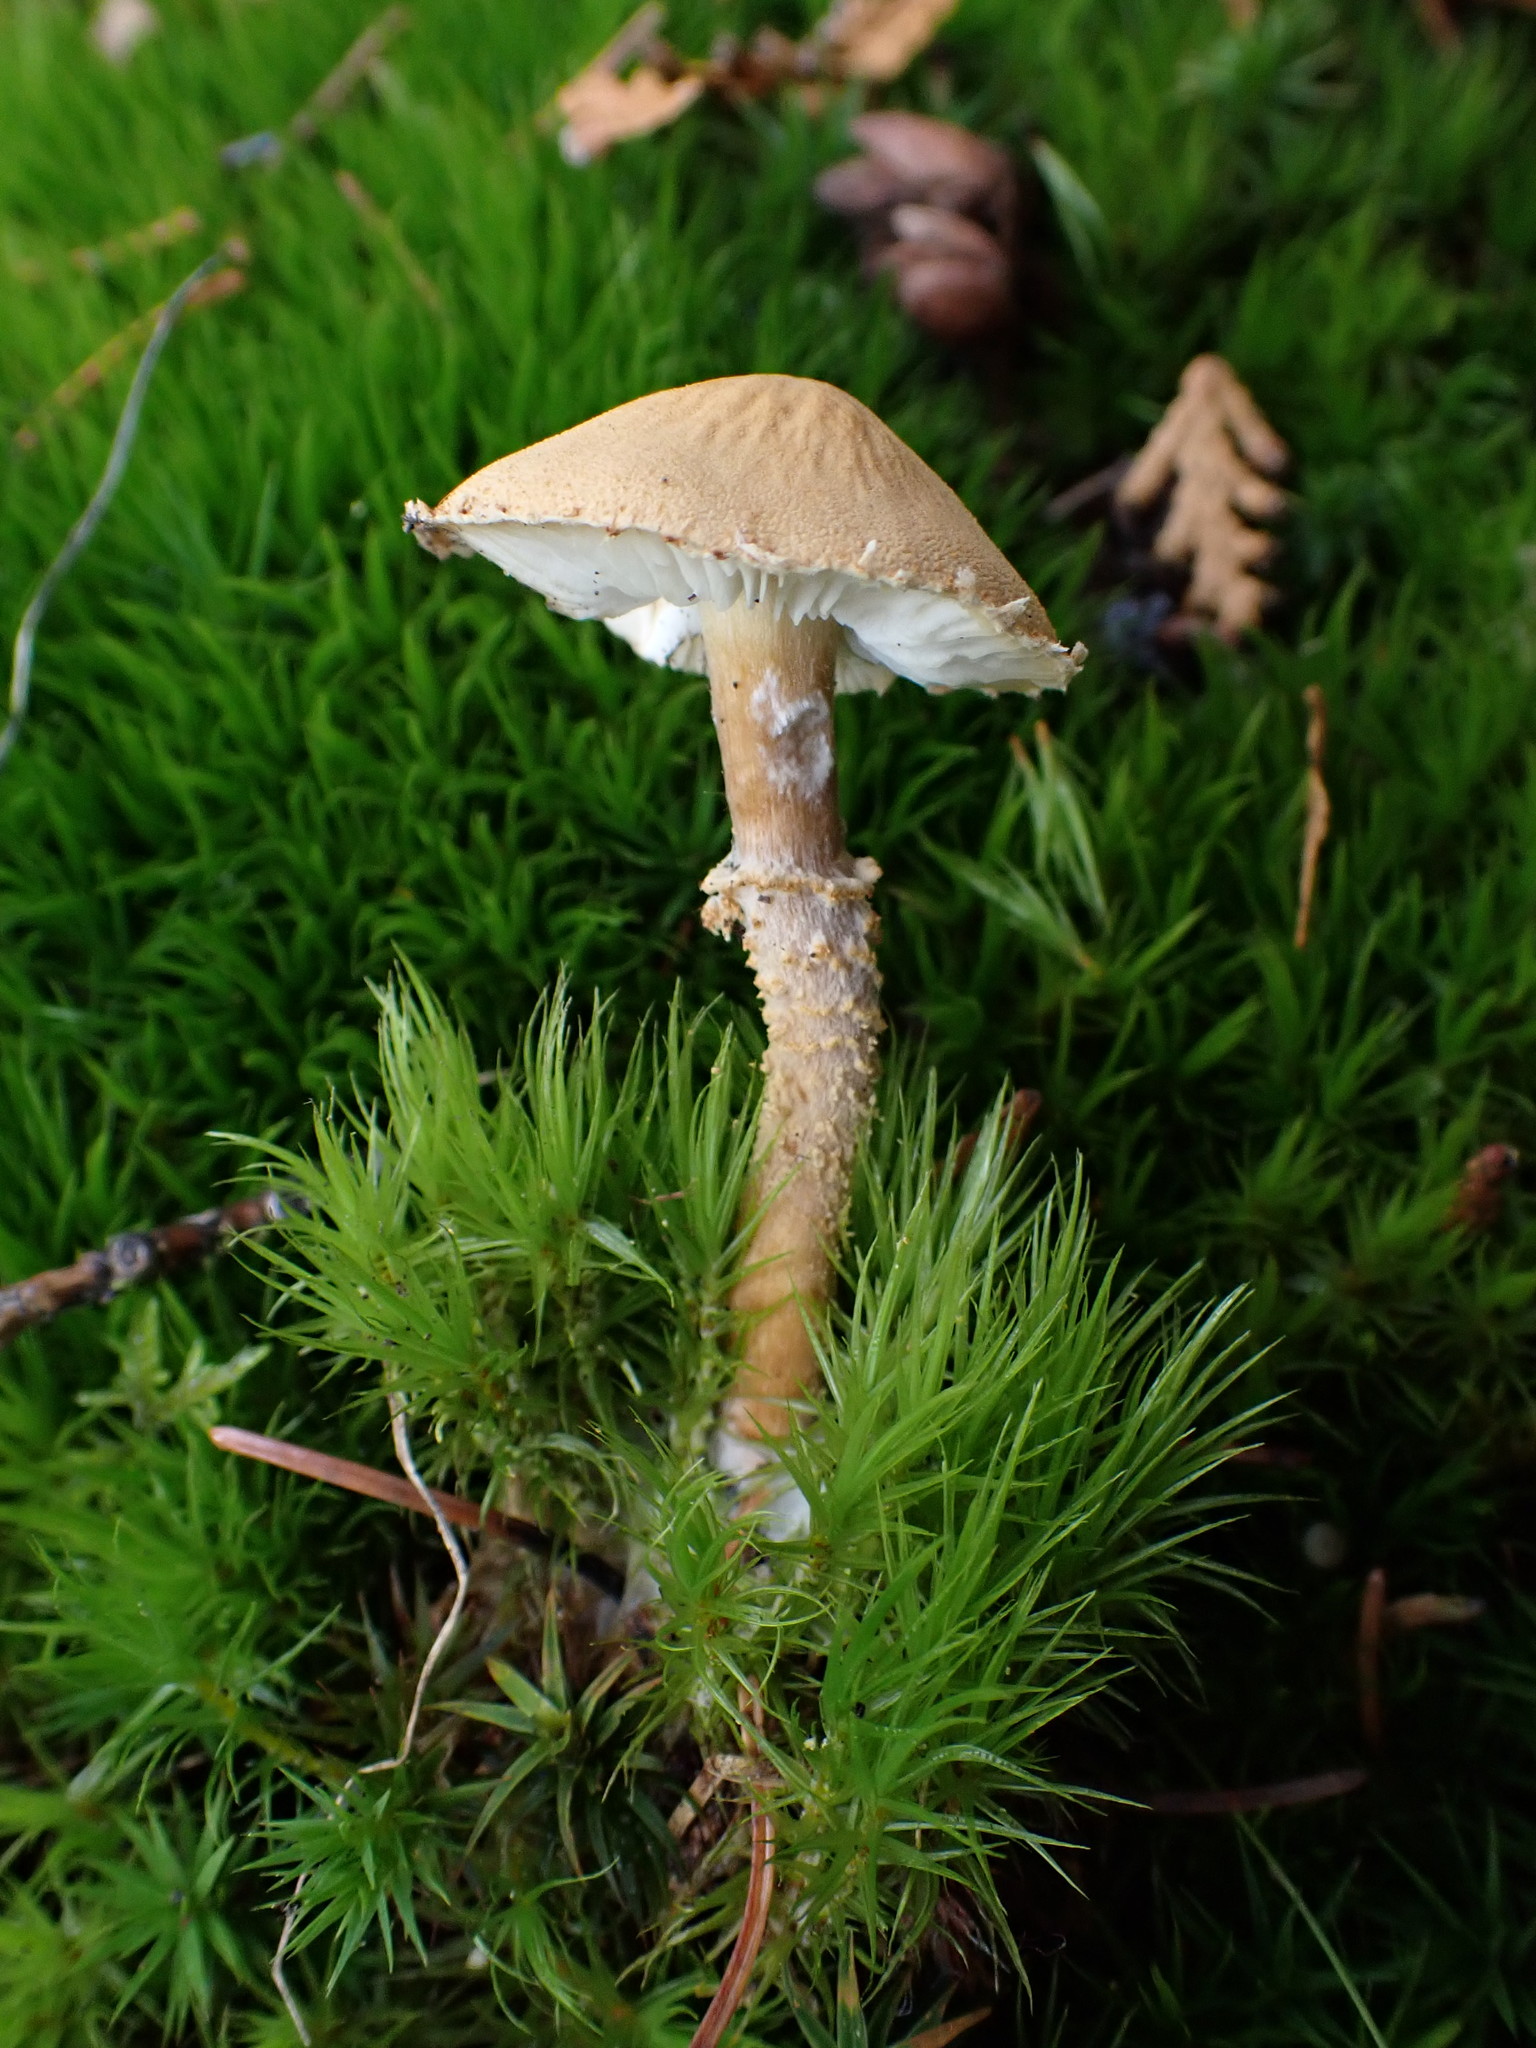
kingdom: Fungi
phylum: Basidiomycota
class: Agaricomycetes
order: Agaricales
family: Tricholomataceae
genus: Cystoderma
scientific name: Cystoderma amianthinum
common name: Earthy powdercap
